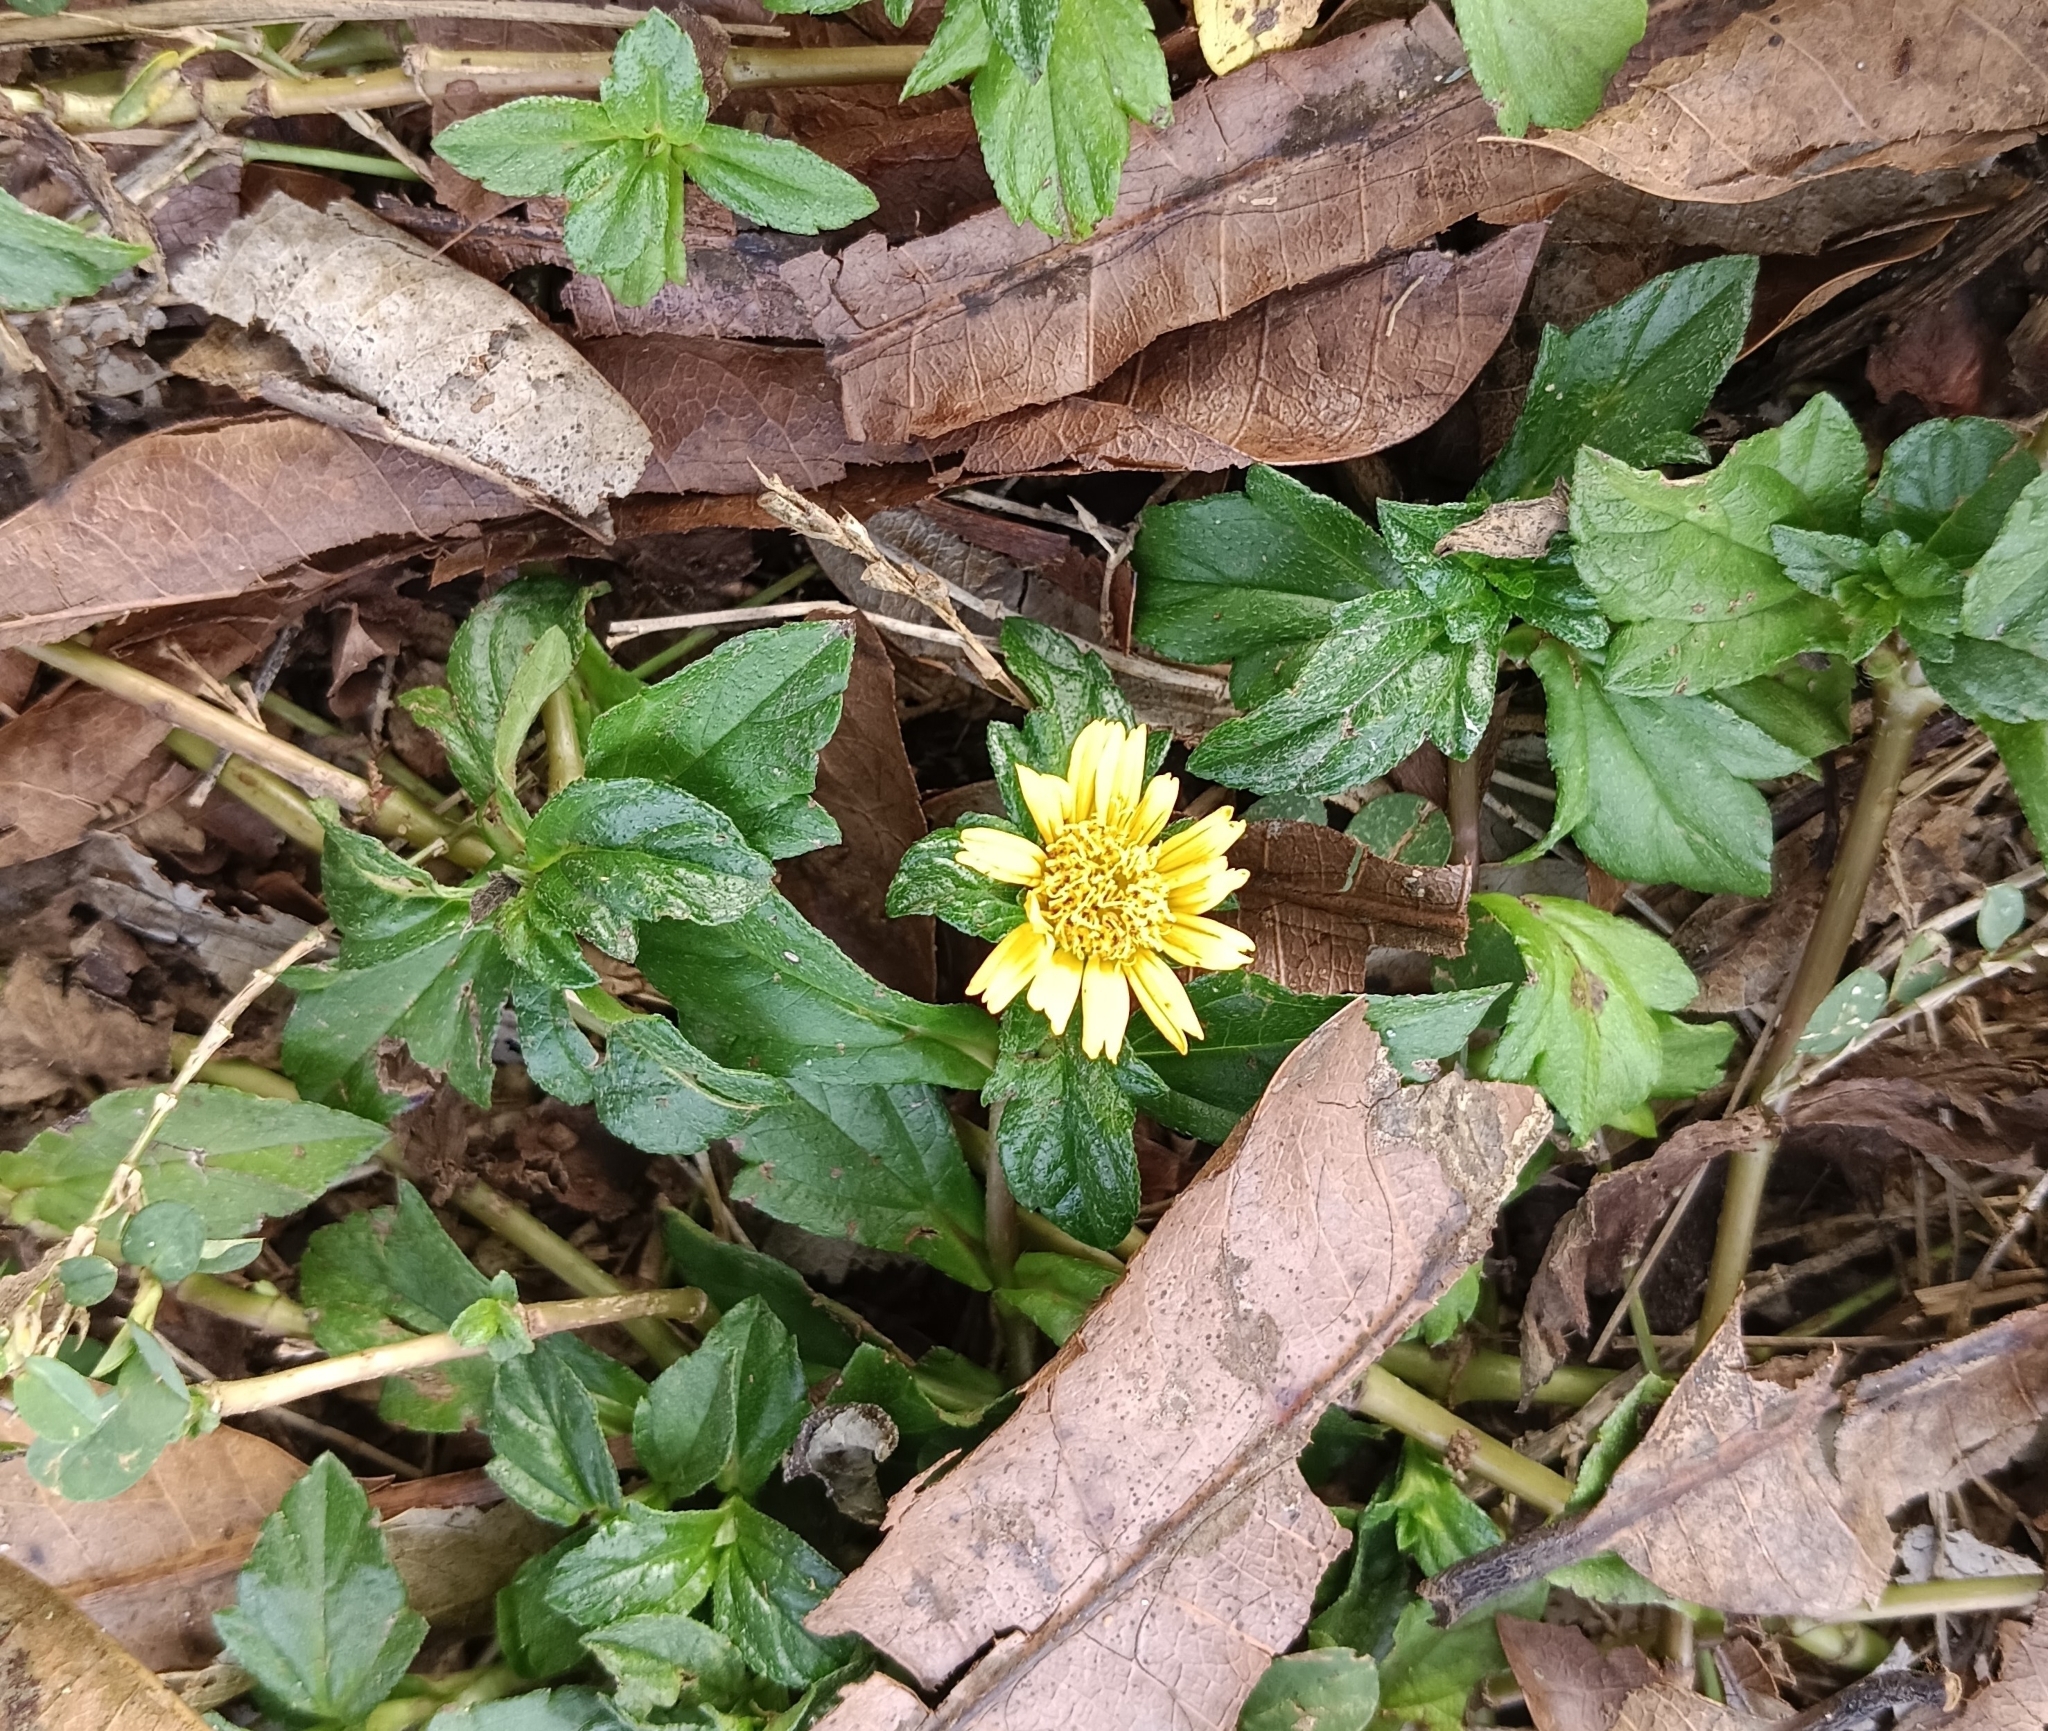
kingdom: Plantae
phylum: Tracheophyta
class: Magnoliopsida
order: Asterales
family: Asteraceae
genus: Sphagneticola
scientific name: Sphagneticola trilobata
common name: Bay biscayne creeping-oxeye
